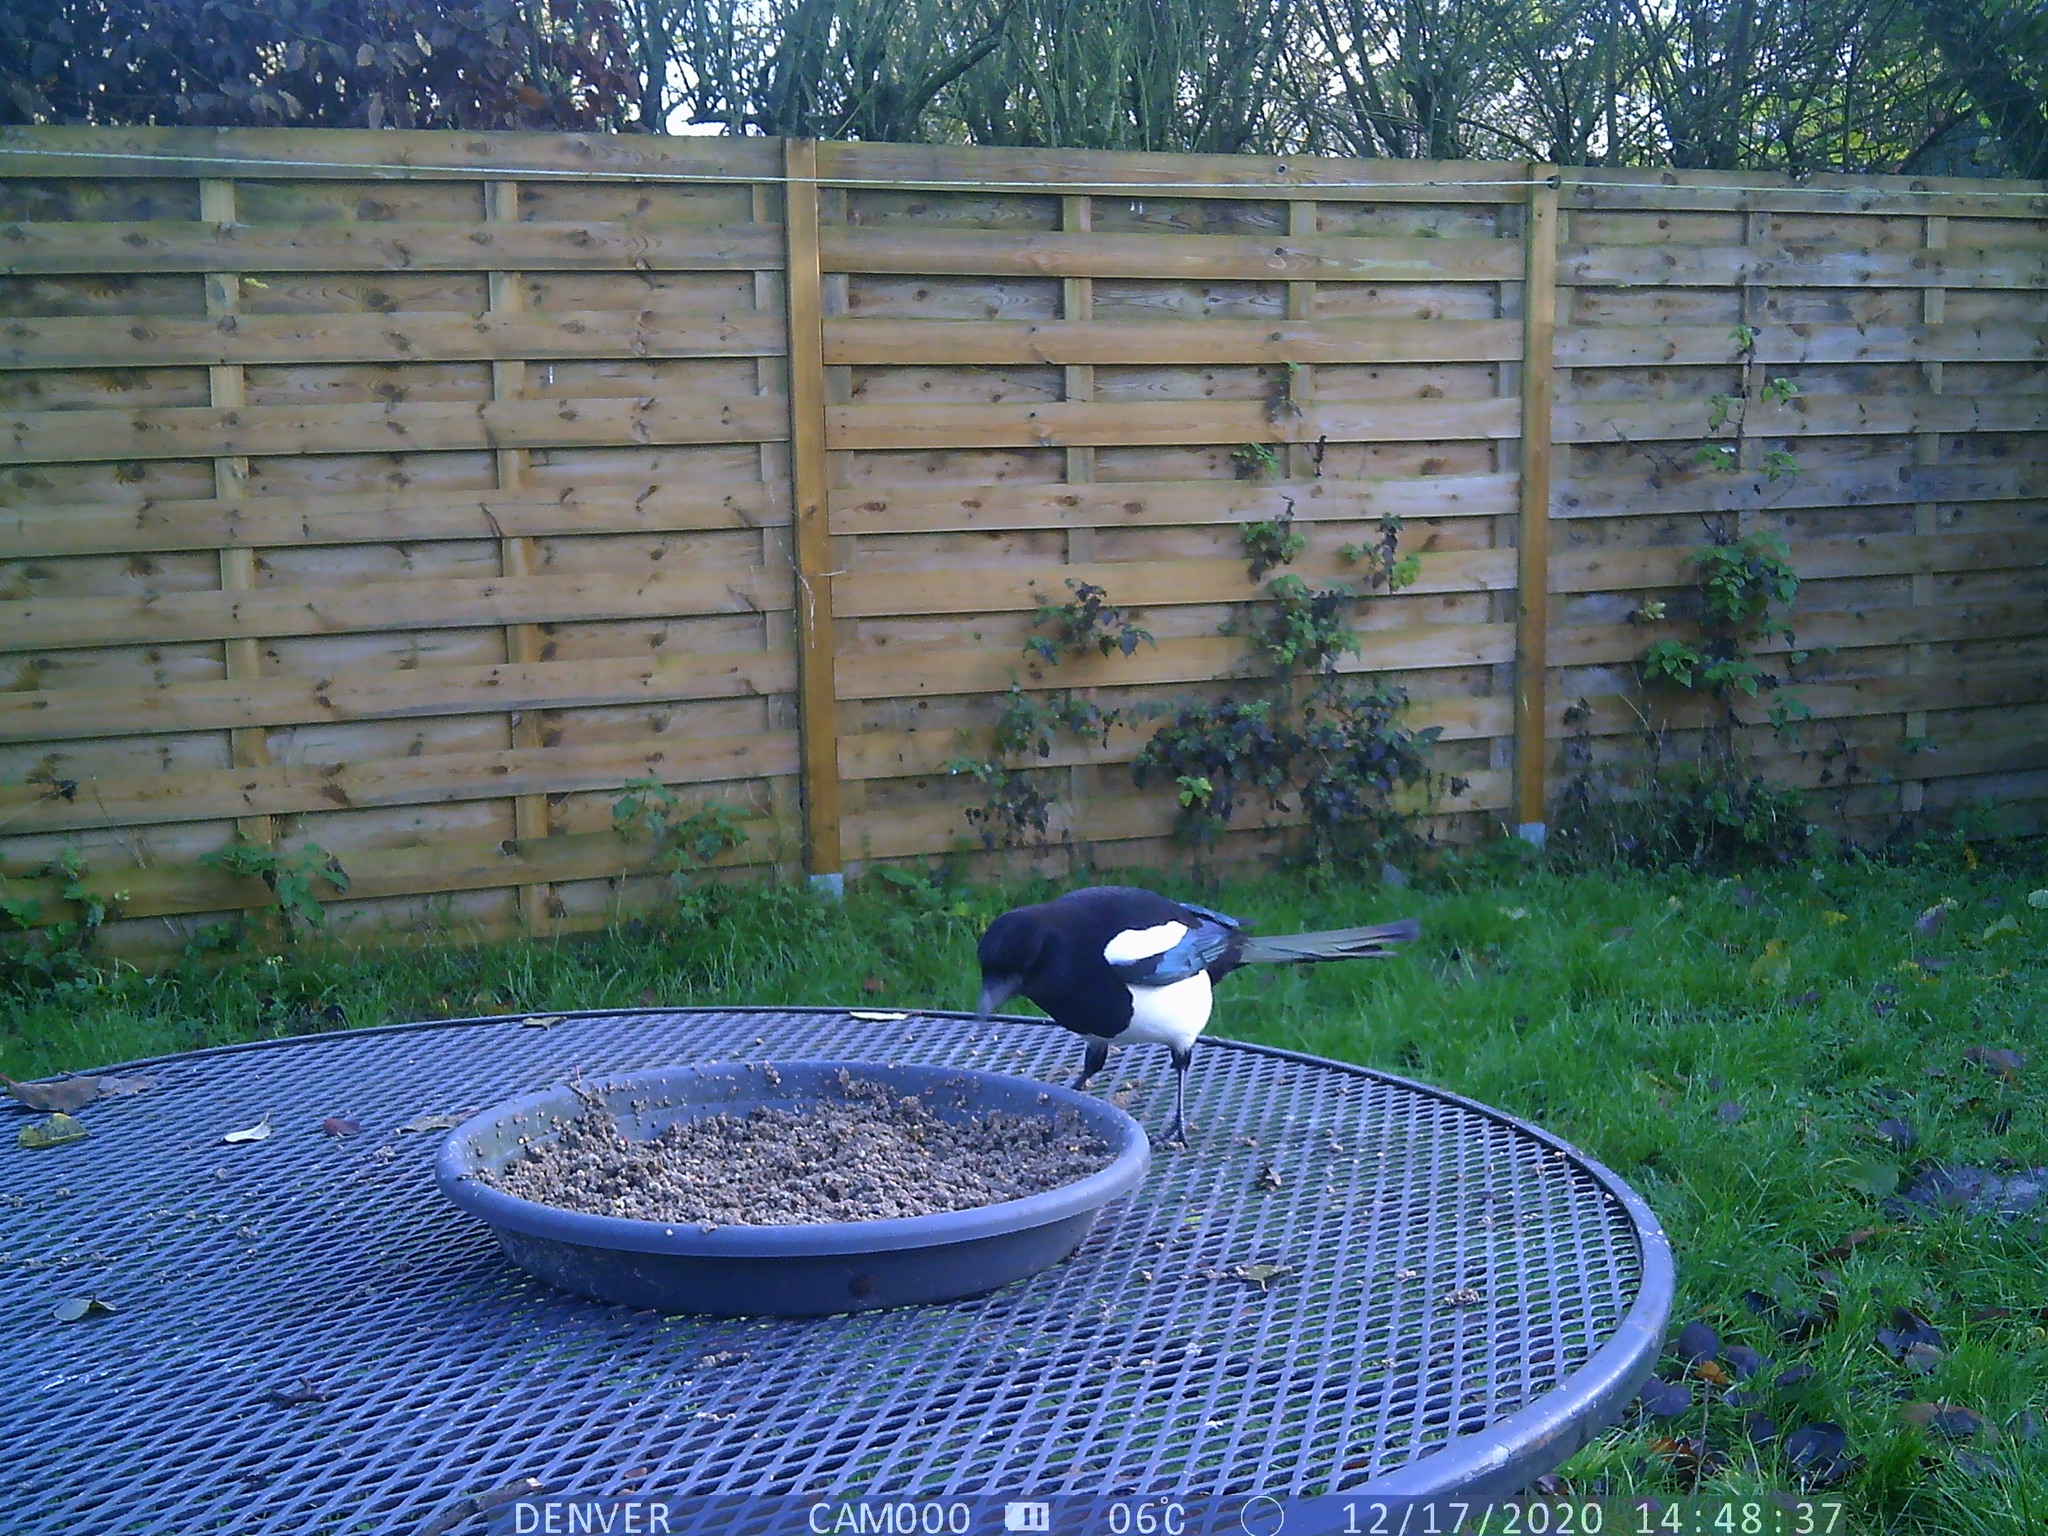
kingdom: Animalia
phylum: Chordata
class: Aves
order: Passeriformes
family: Corvidae
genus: Pica
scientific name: Pica pica
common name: Eurasian magpie
